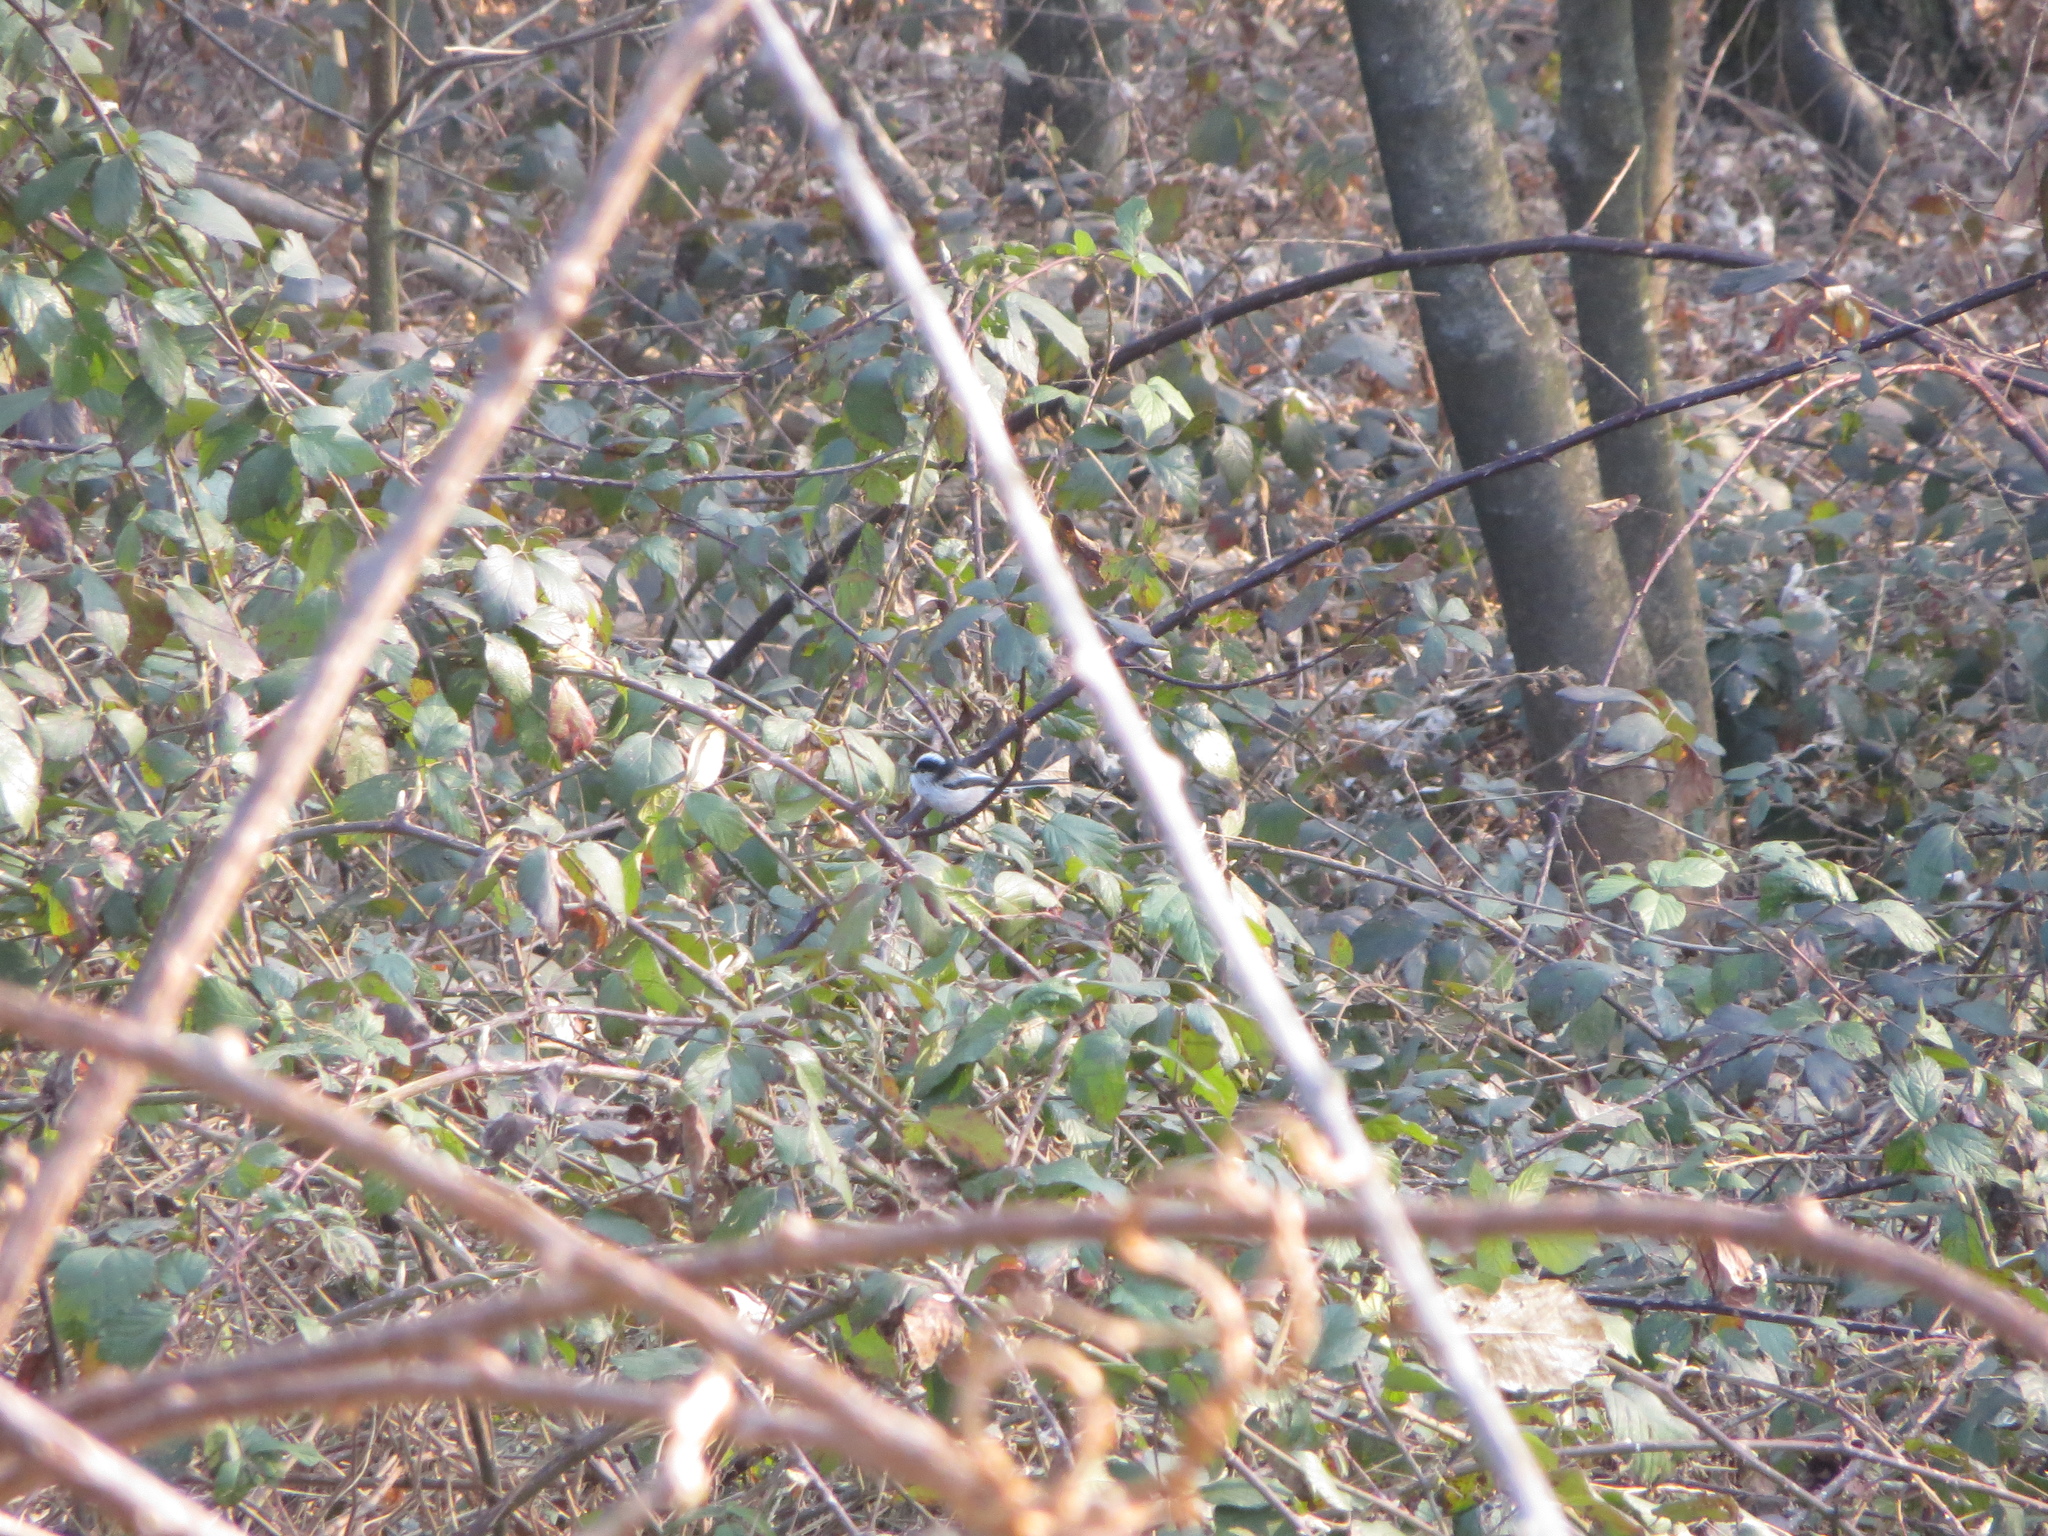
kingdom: Animalia
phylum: Chordata
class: Aves
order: Passeriformes
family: Aegithalidae
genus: Aegithalos
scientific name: Aegithalos caudatus
